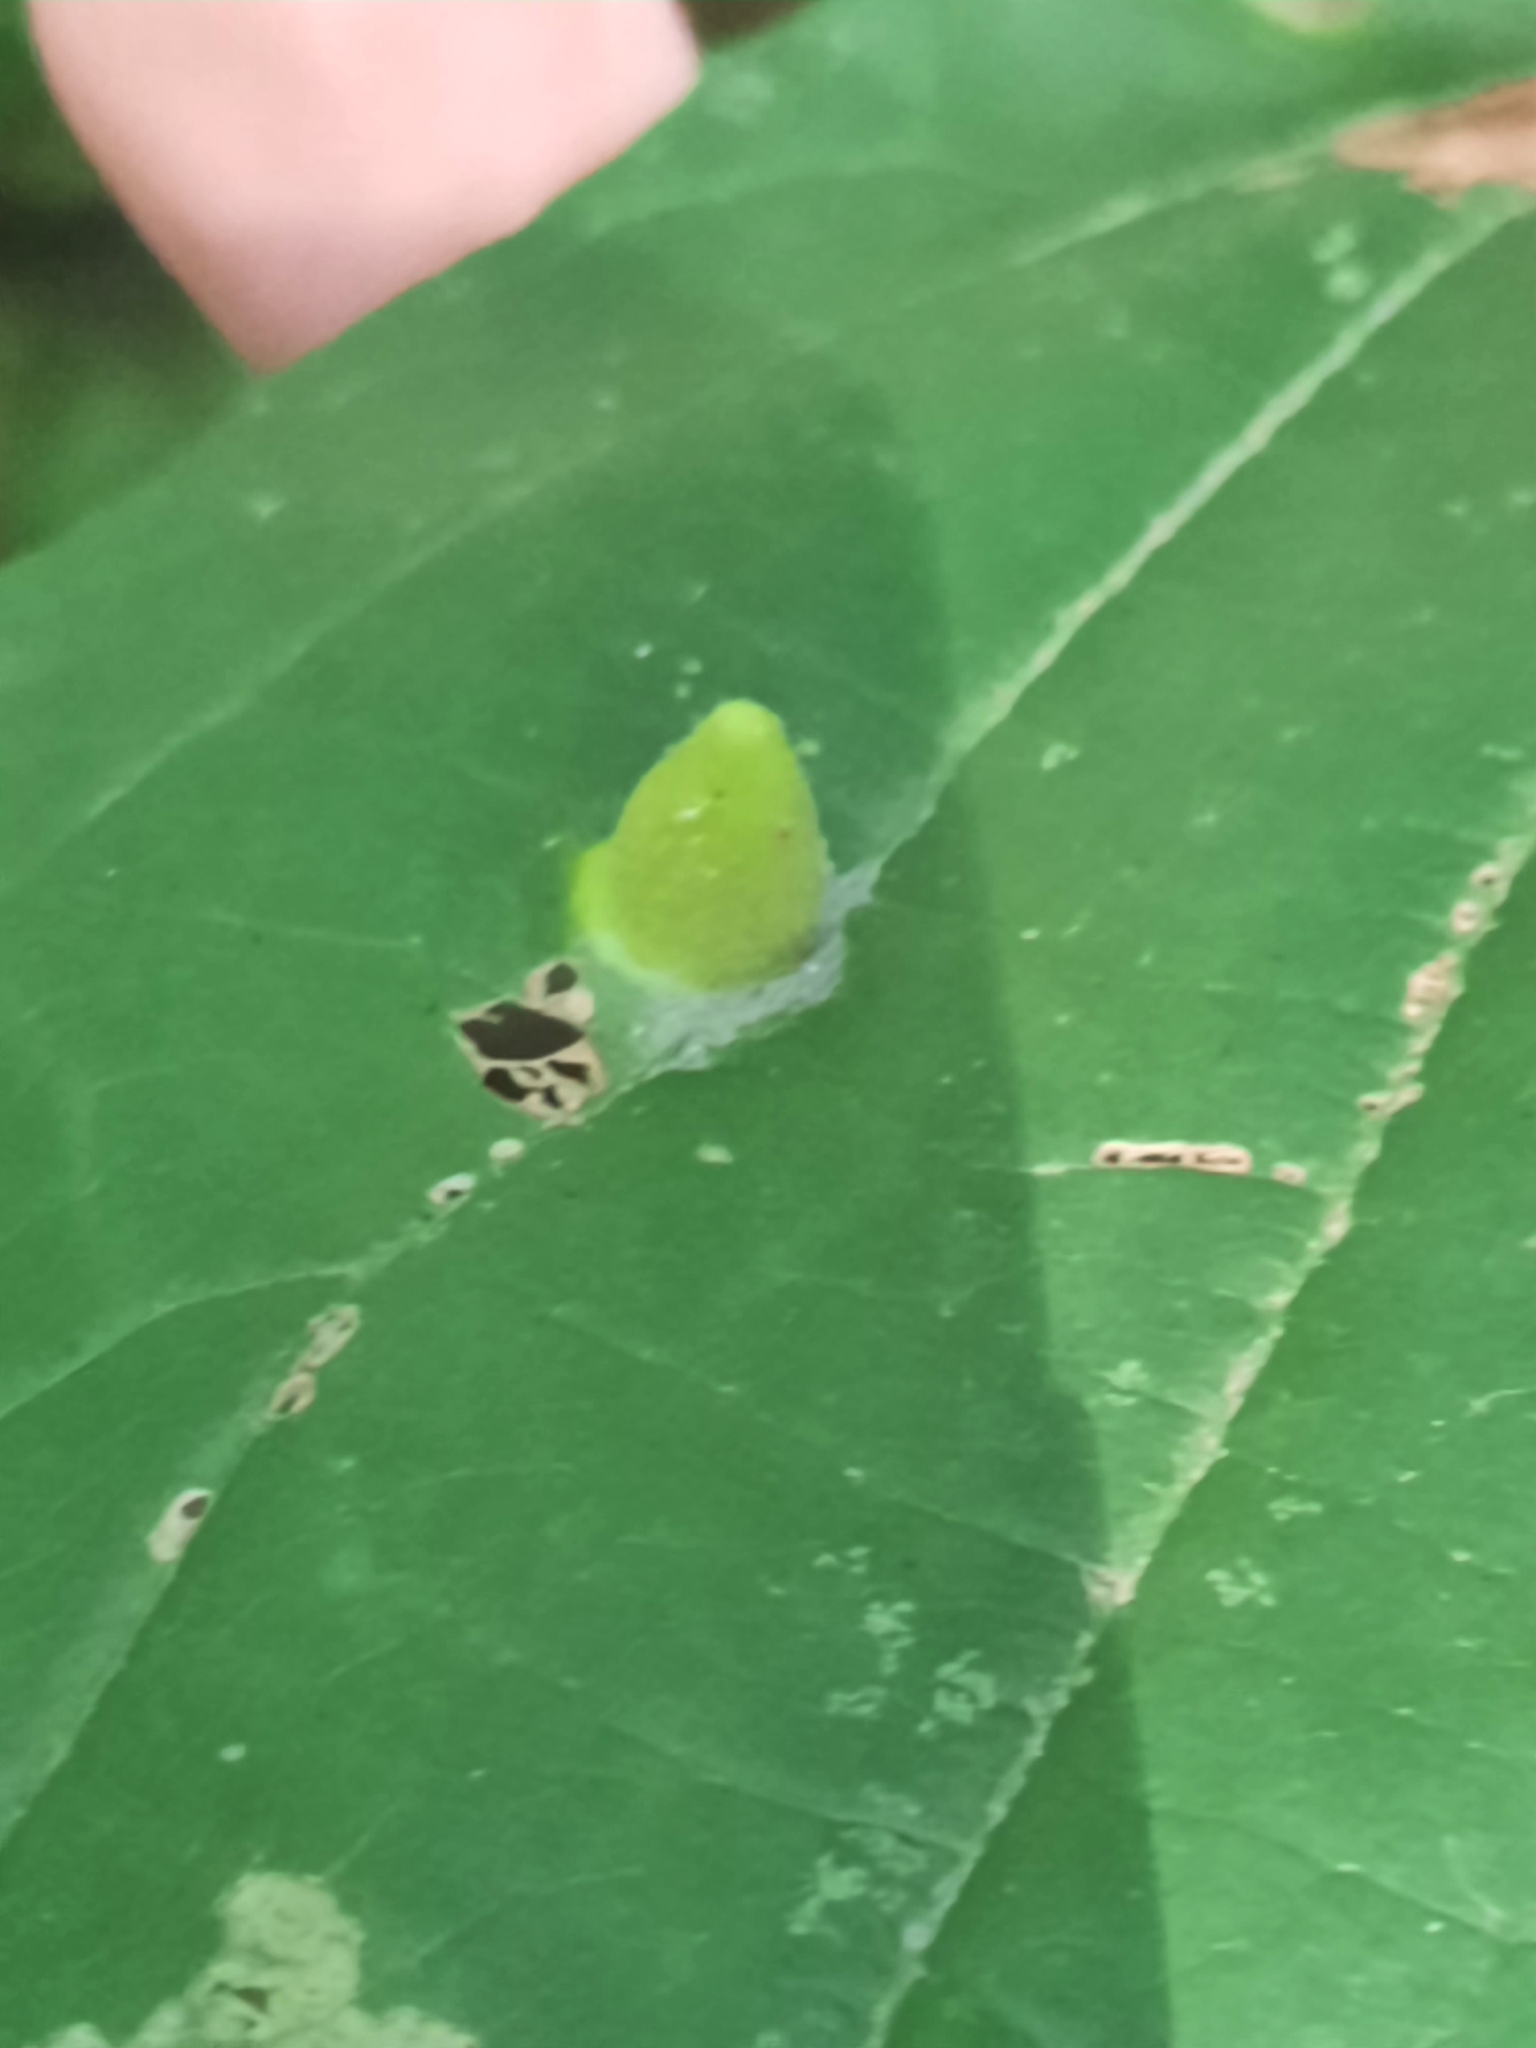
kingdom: Animalia
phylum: Arthropoda
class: Insecta
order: Hemiptera
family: Aphididae
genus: Hormaphis
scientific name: Hormaphis hamamelidis
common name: Witch-hazel cone gall aphid
